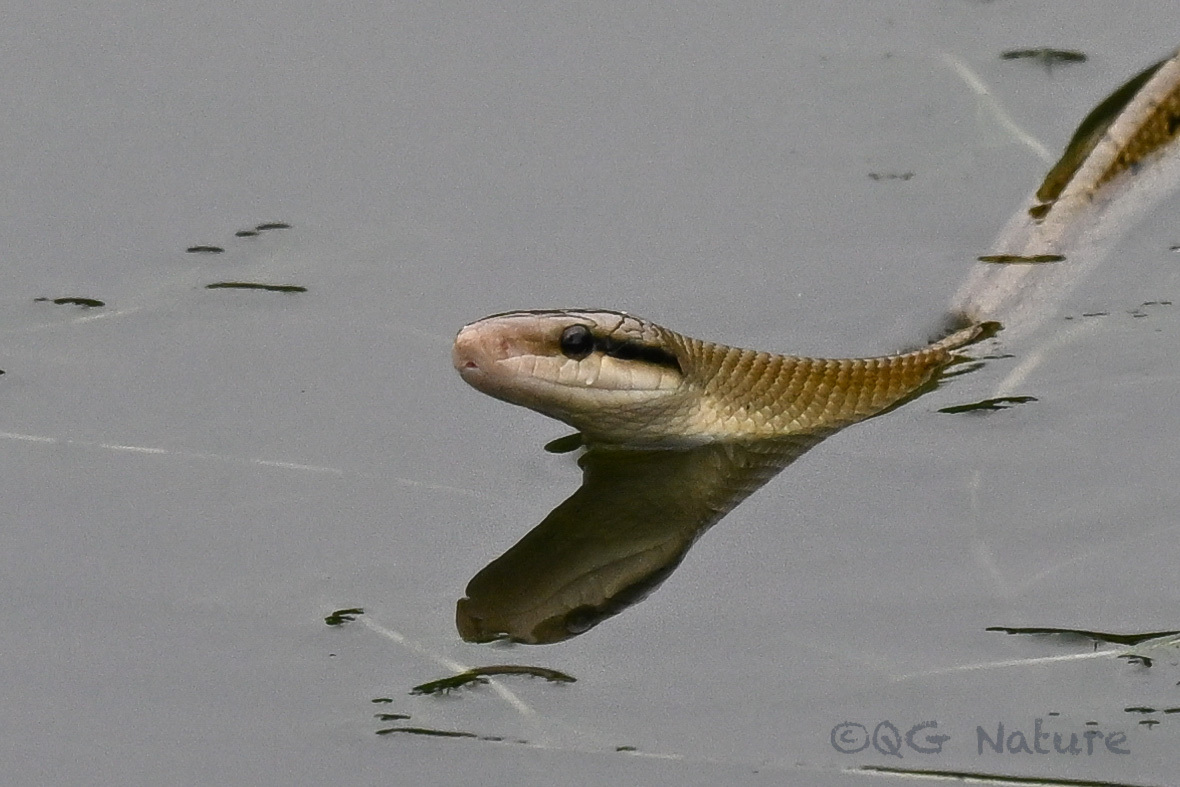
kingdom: Animalia
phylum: Chordata
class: Squamata
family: Colubridae
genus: Elaphe
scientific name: Elaphe taeniura
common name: Beauty snake
